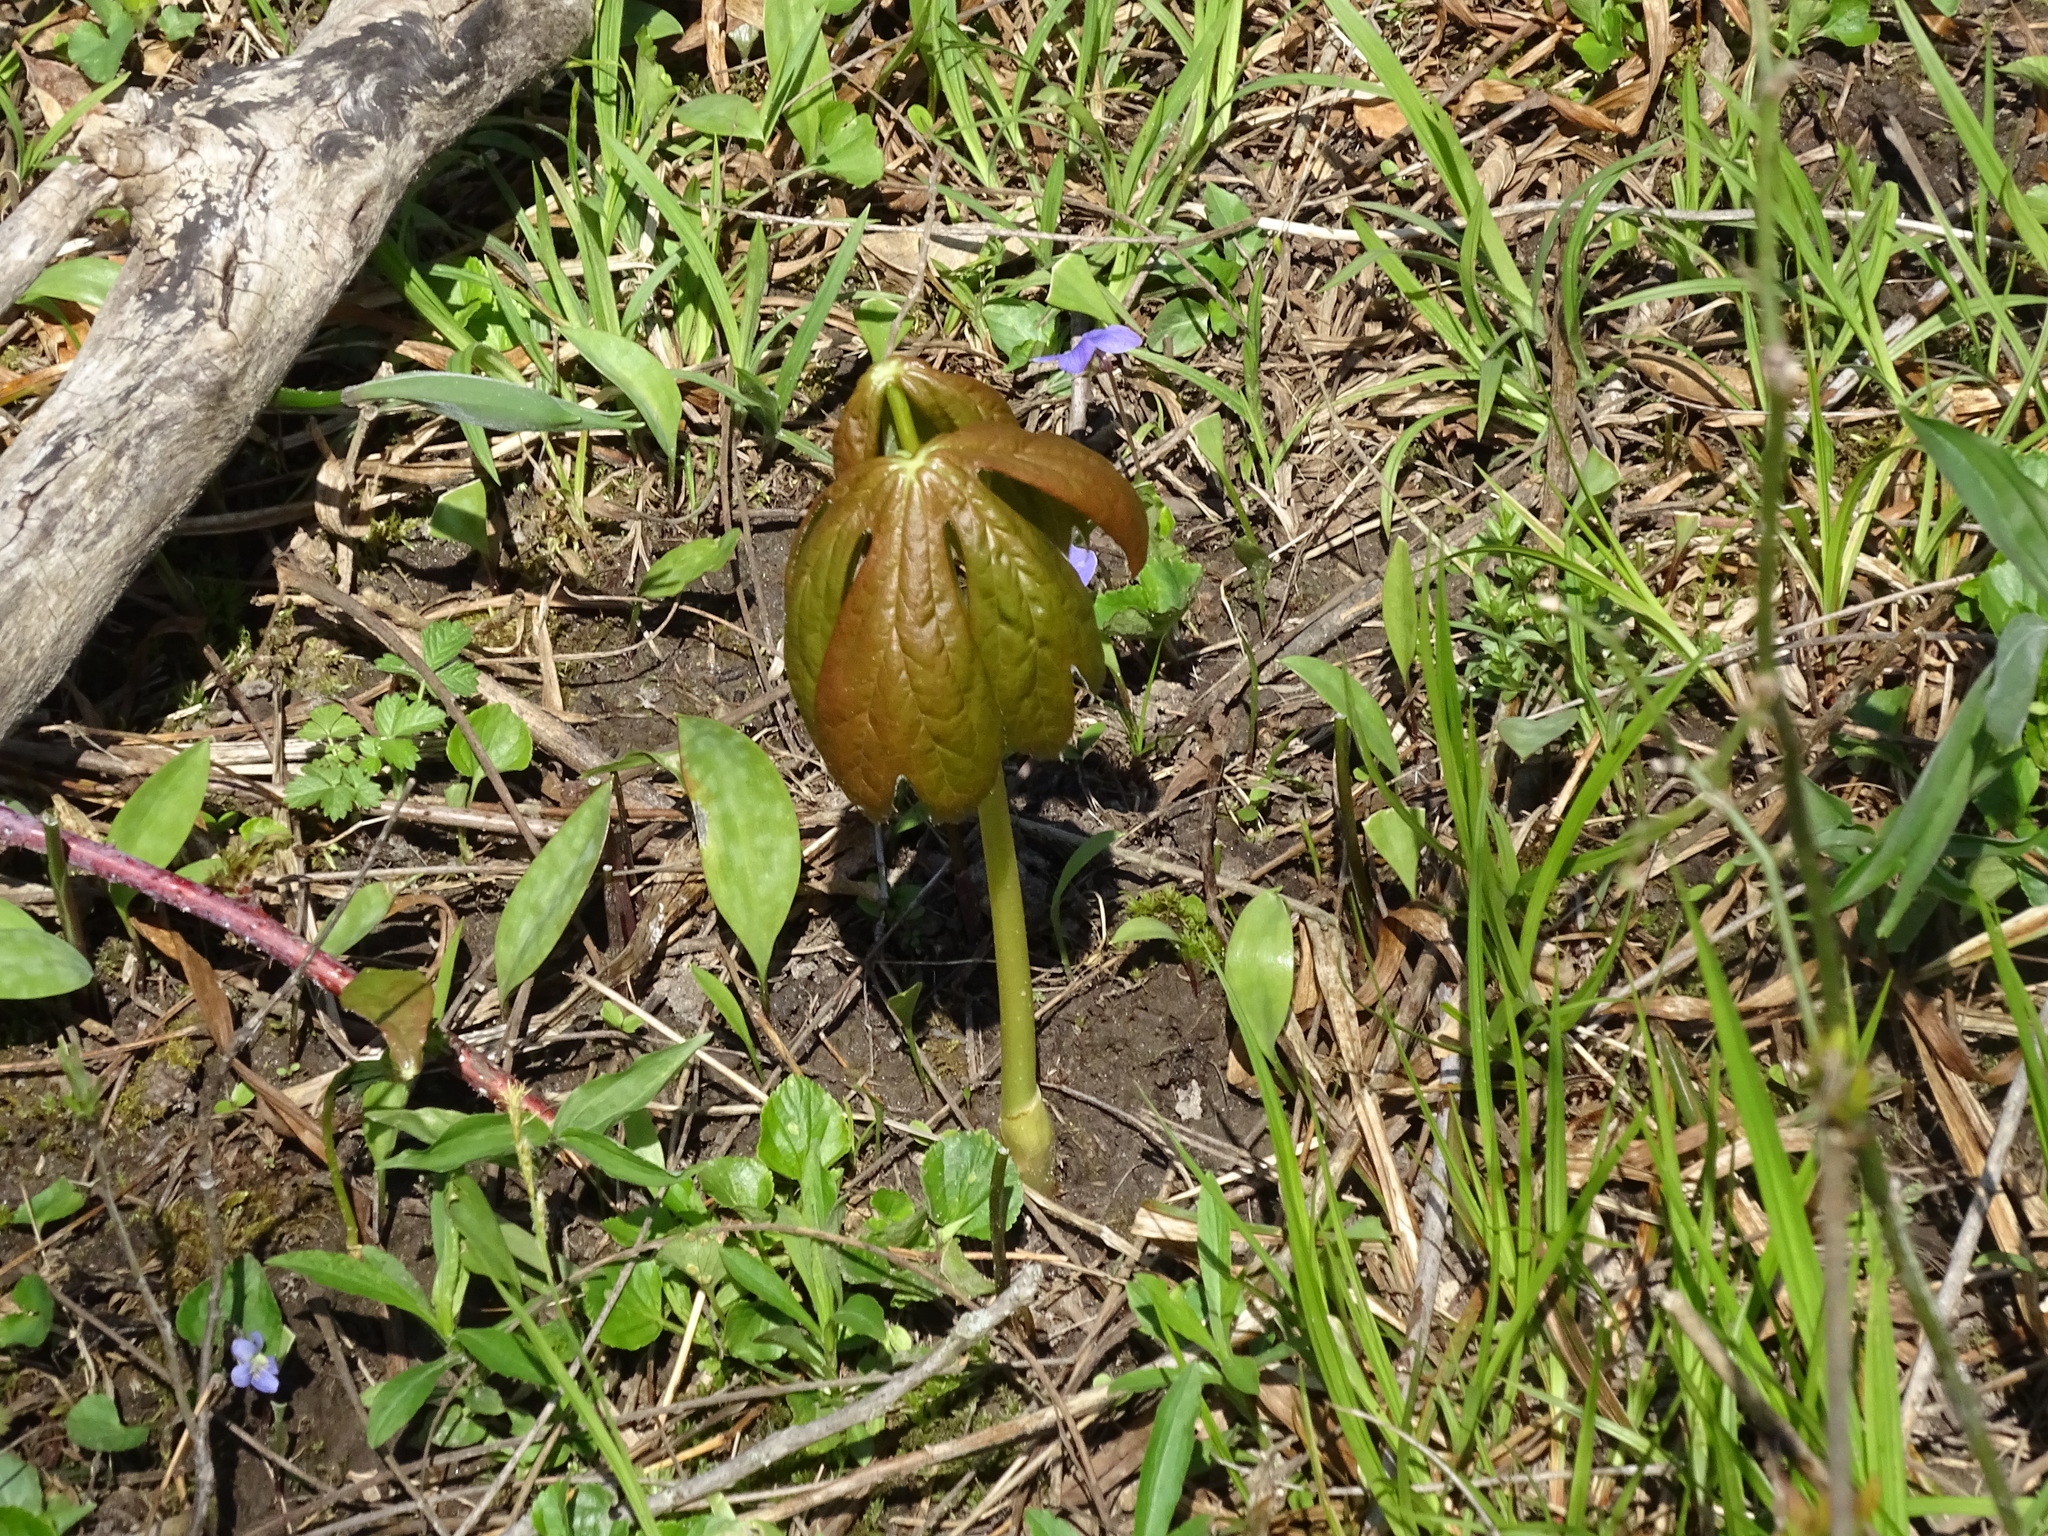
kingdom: Plantae
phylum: Tracheophyta
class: Magnoliopsida
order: Ranunculales
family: Berberidaceae
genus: Podophyllum
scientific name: Podophyllum peltatum
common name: Wild mandrake
